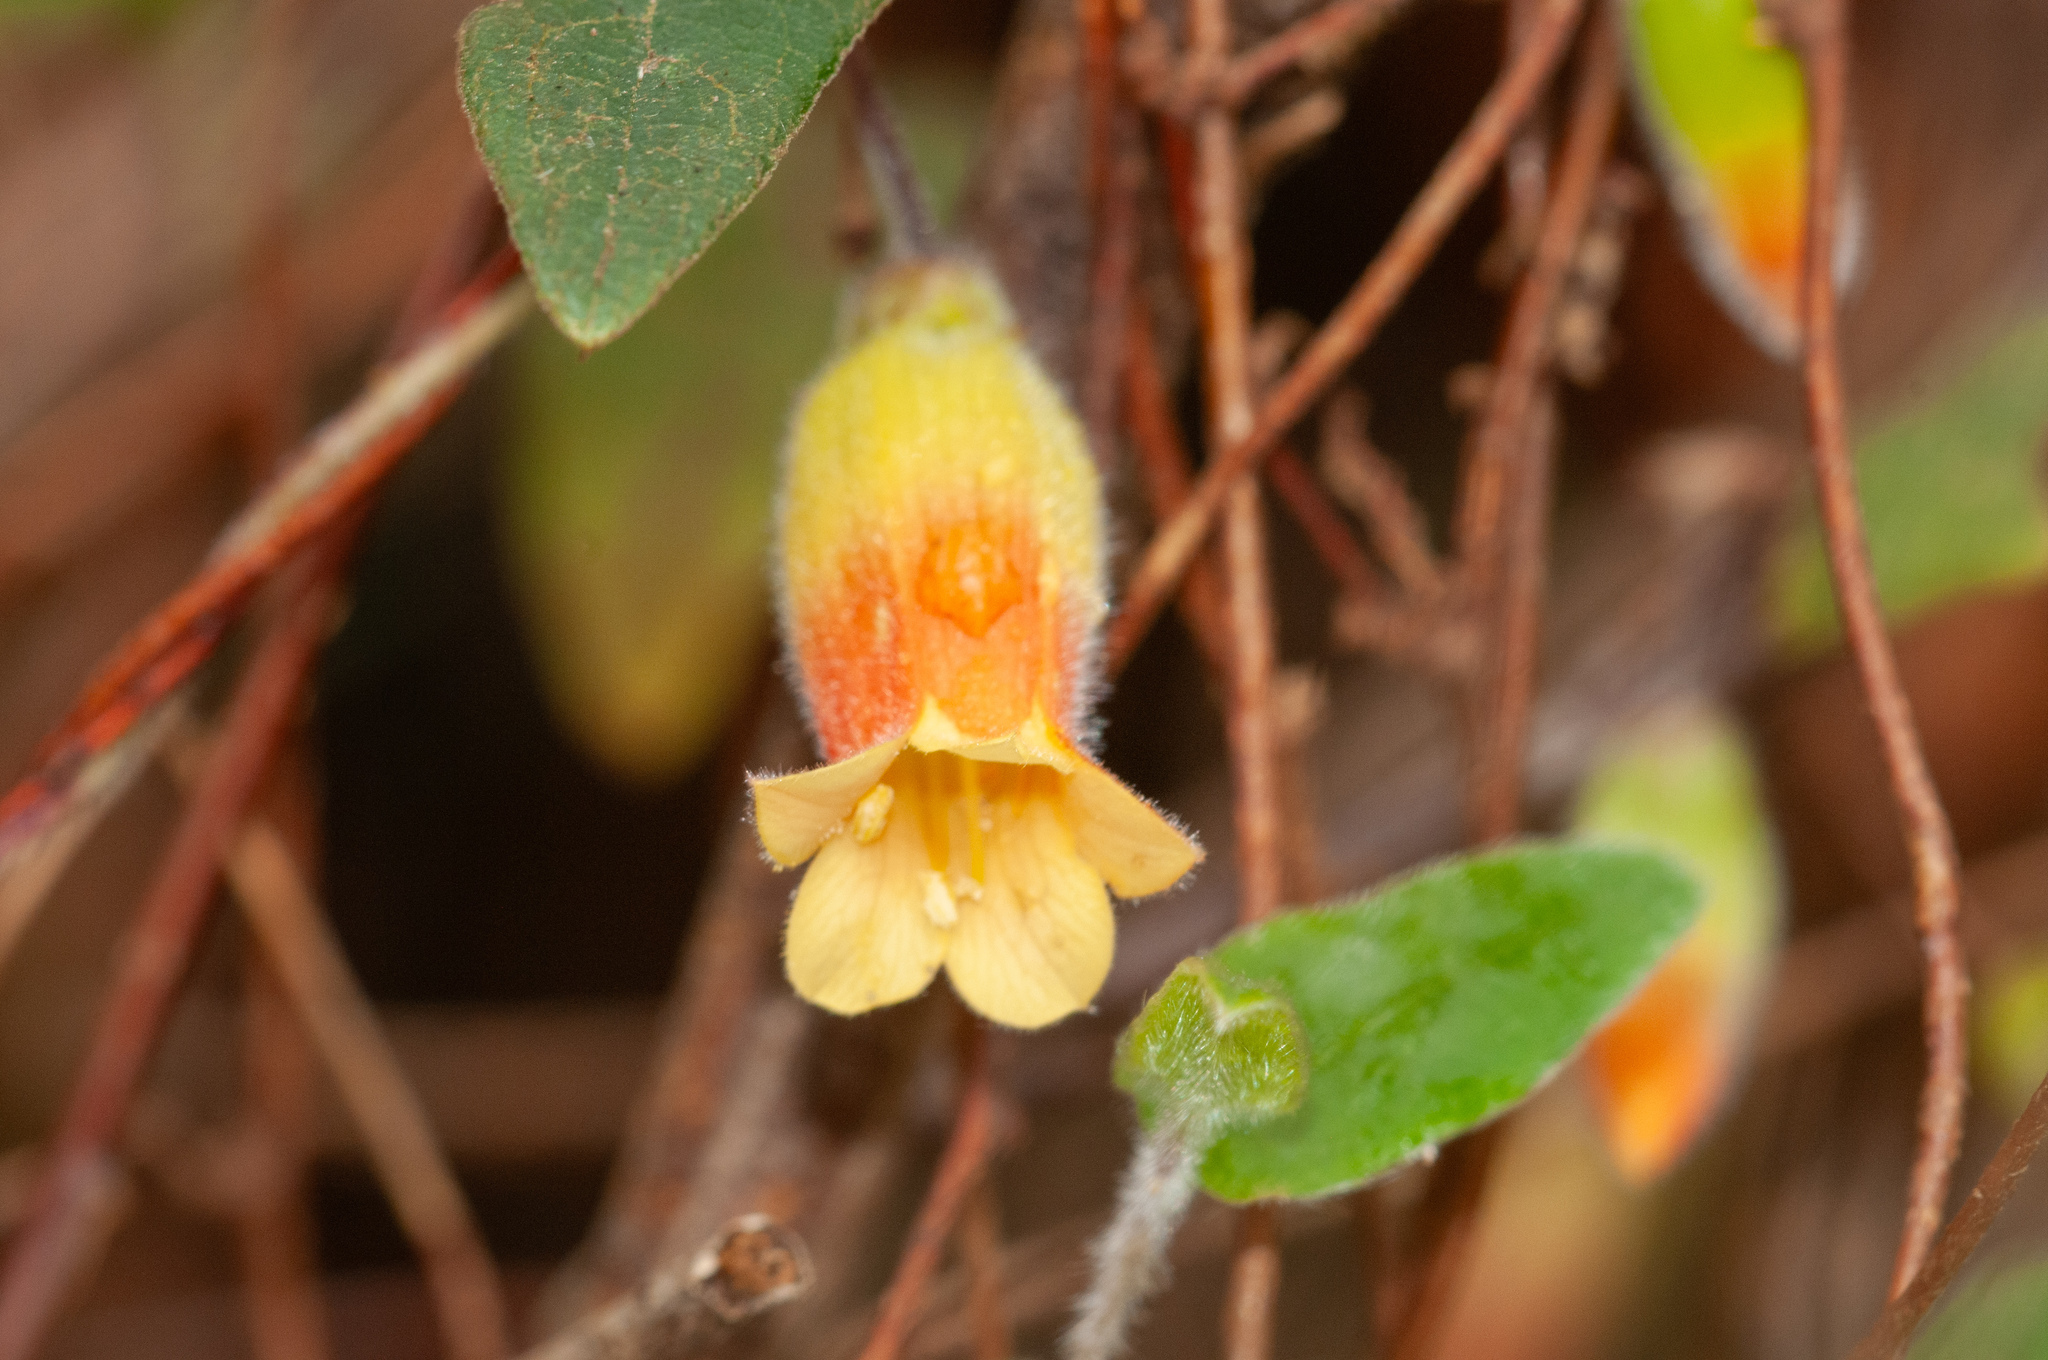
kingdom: Plantae
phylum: Tracheophyta
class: Magnoliopsida
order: Apiales
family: Pittosporaceae
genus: Marianthus
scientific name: Marianthus bignoniaceus
